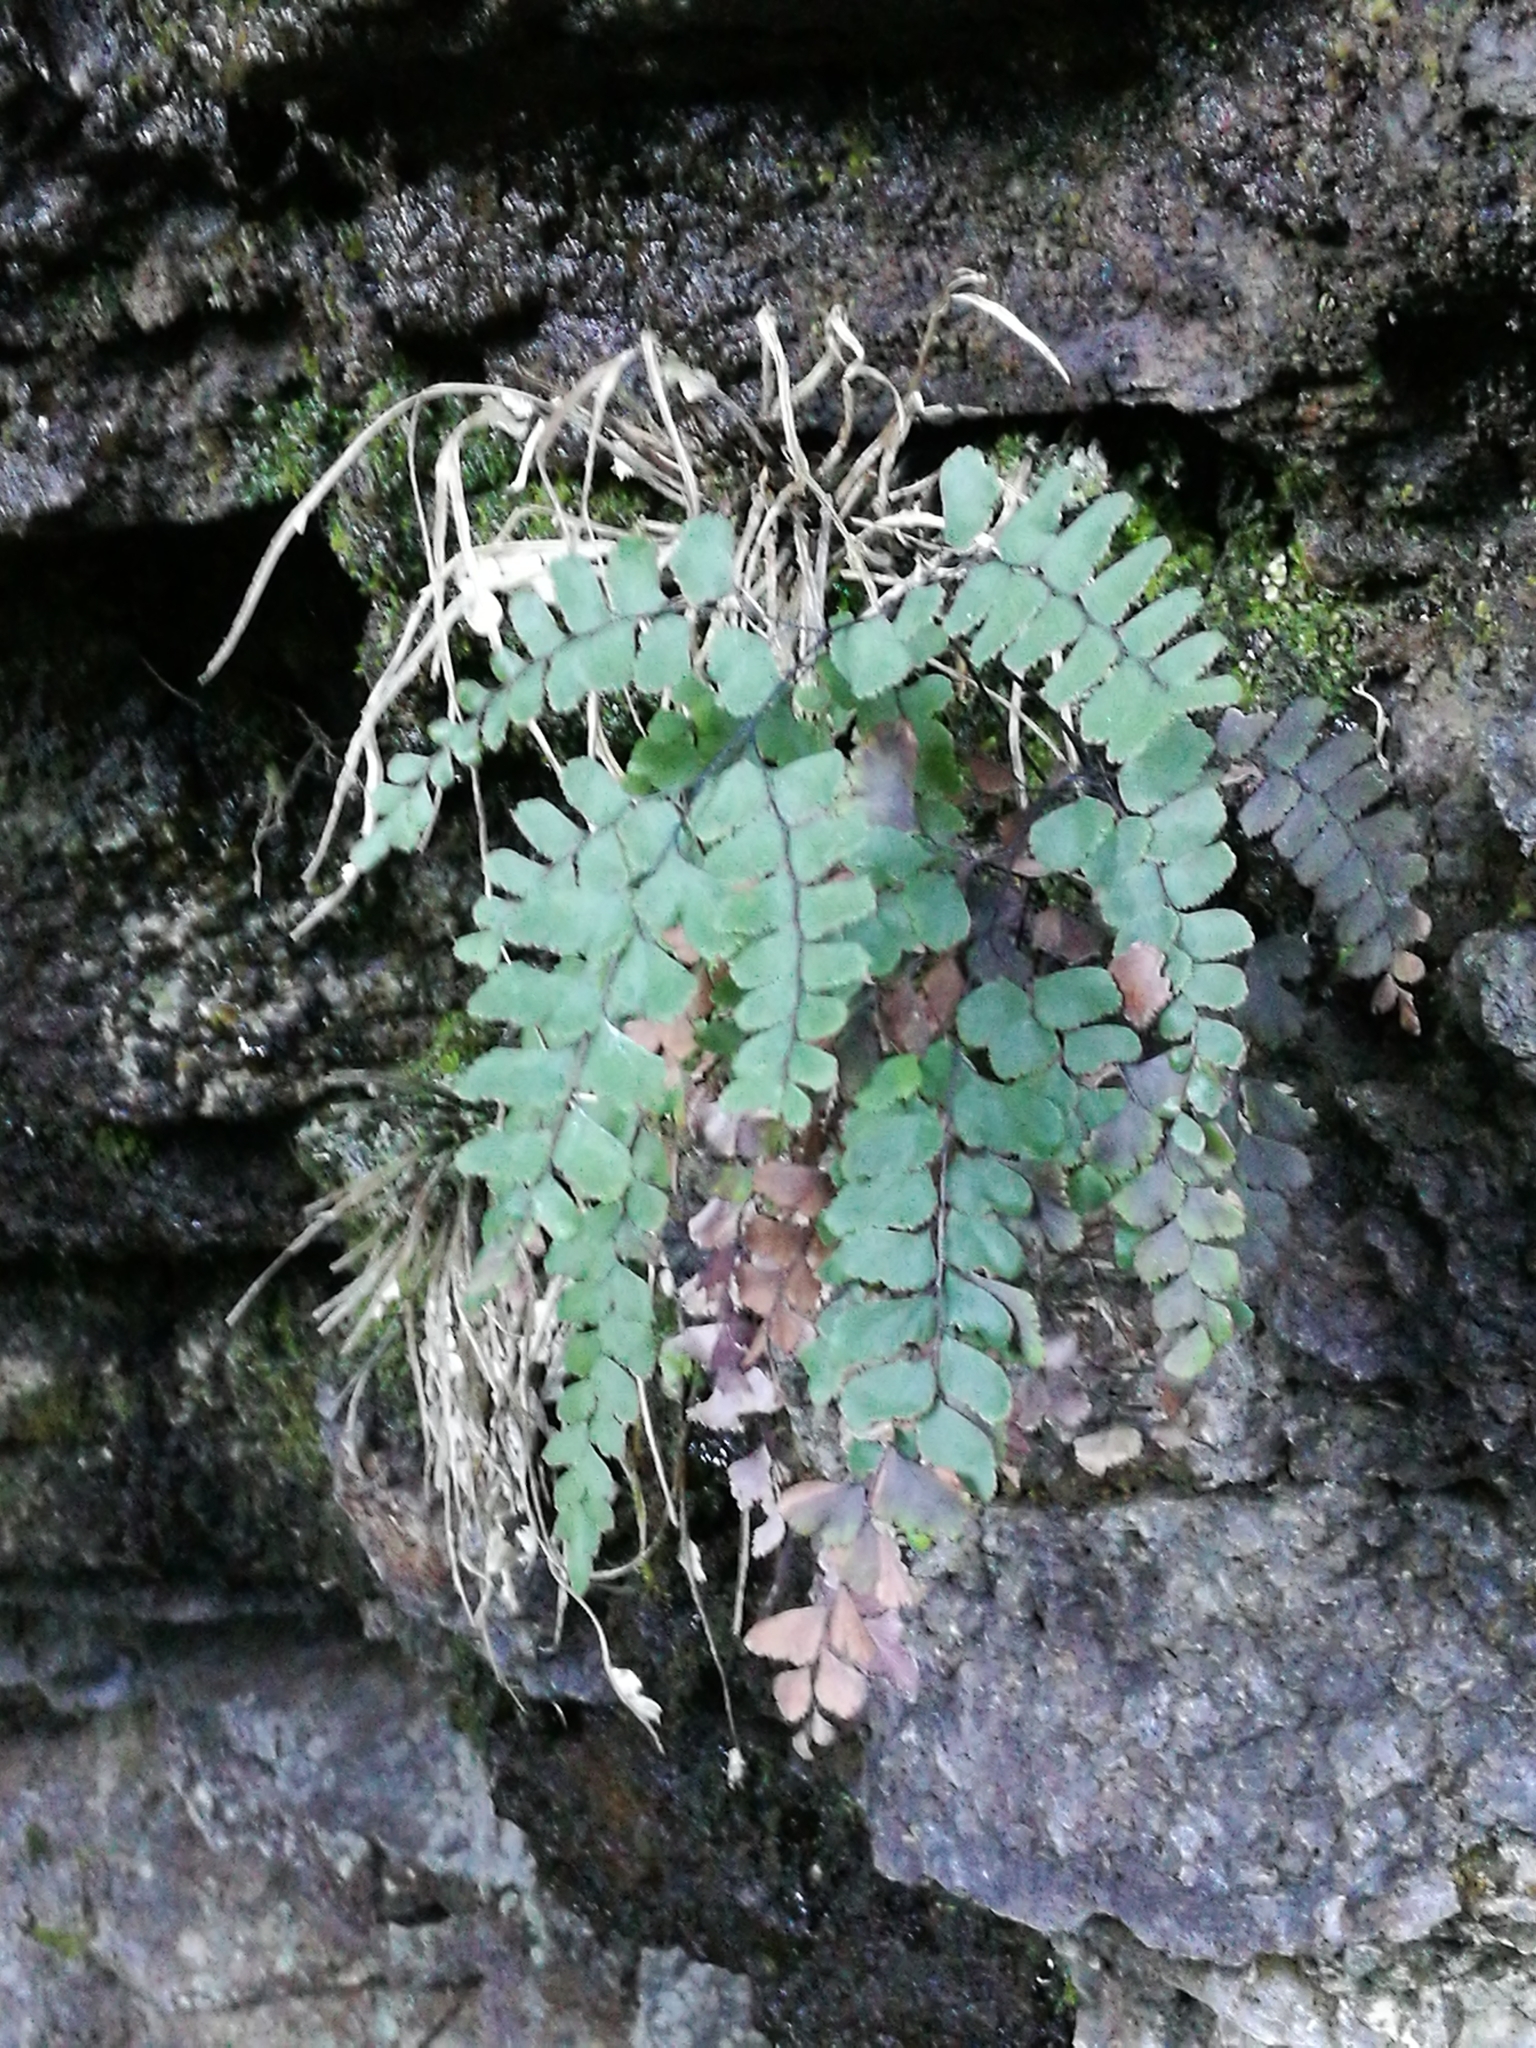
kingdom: Plantae
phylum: Tracheophyta
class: Polypodiopsida
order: Polypodiales
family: Pteridaceae
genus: Adiantum
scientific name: Adiantum cunninghamii
